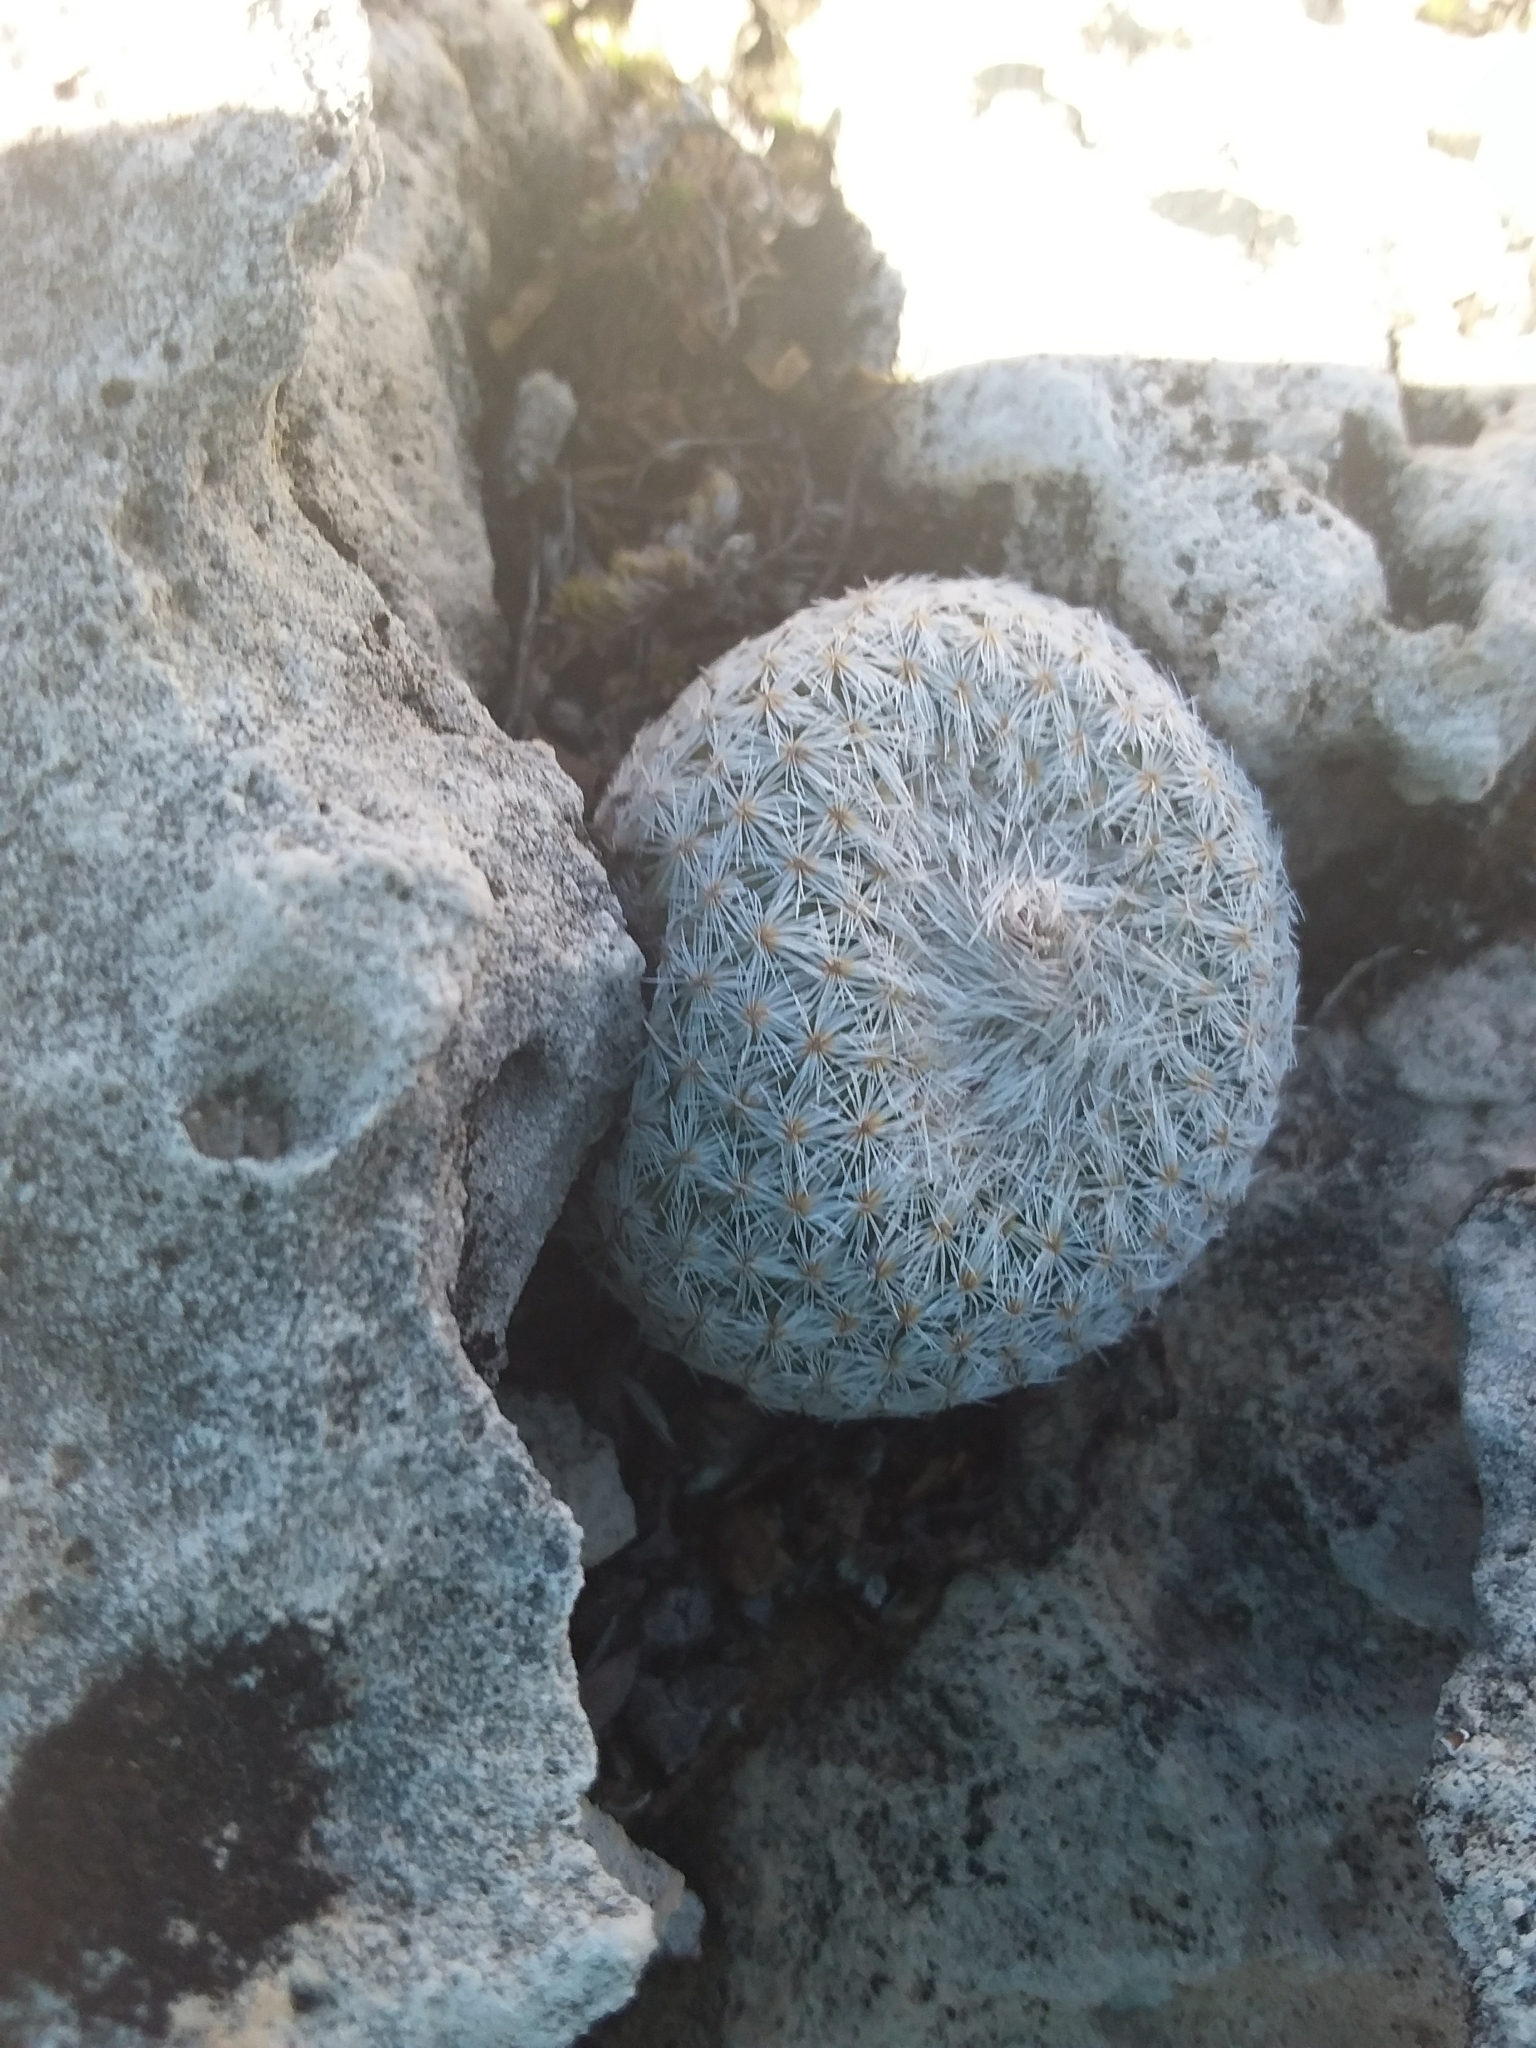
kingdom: Plantae
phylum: Tracheophyta
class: Magnoliopsida
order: Caryophyllales
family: Cactaceae
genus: Epithelantha
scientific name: Epithelantha micromeris
